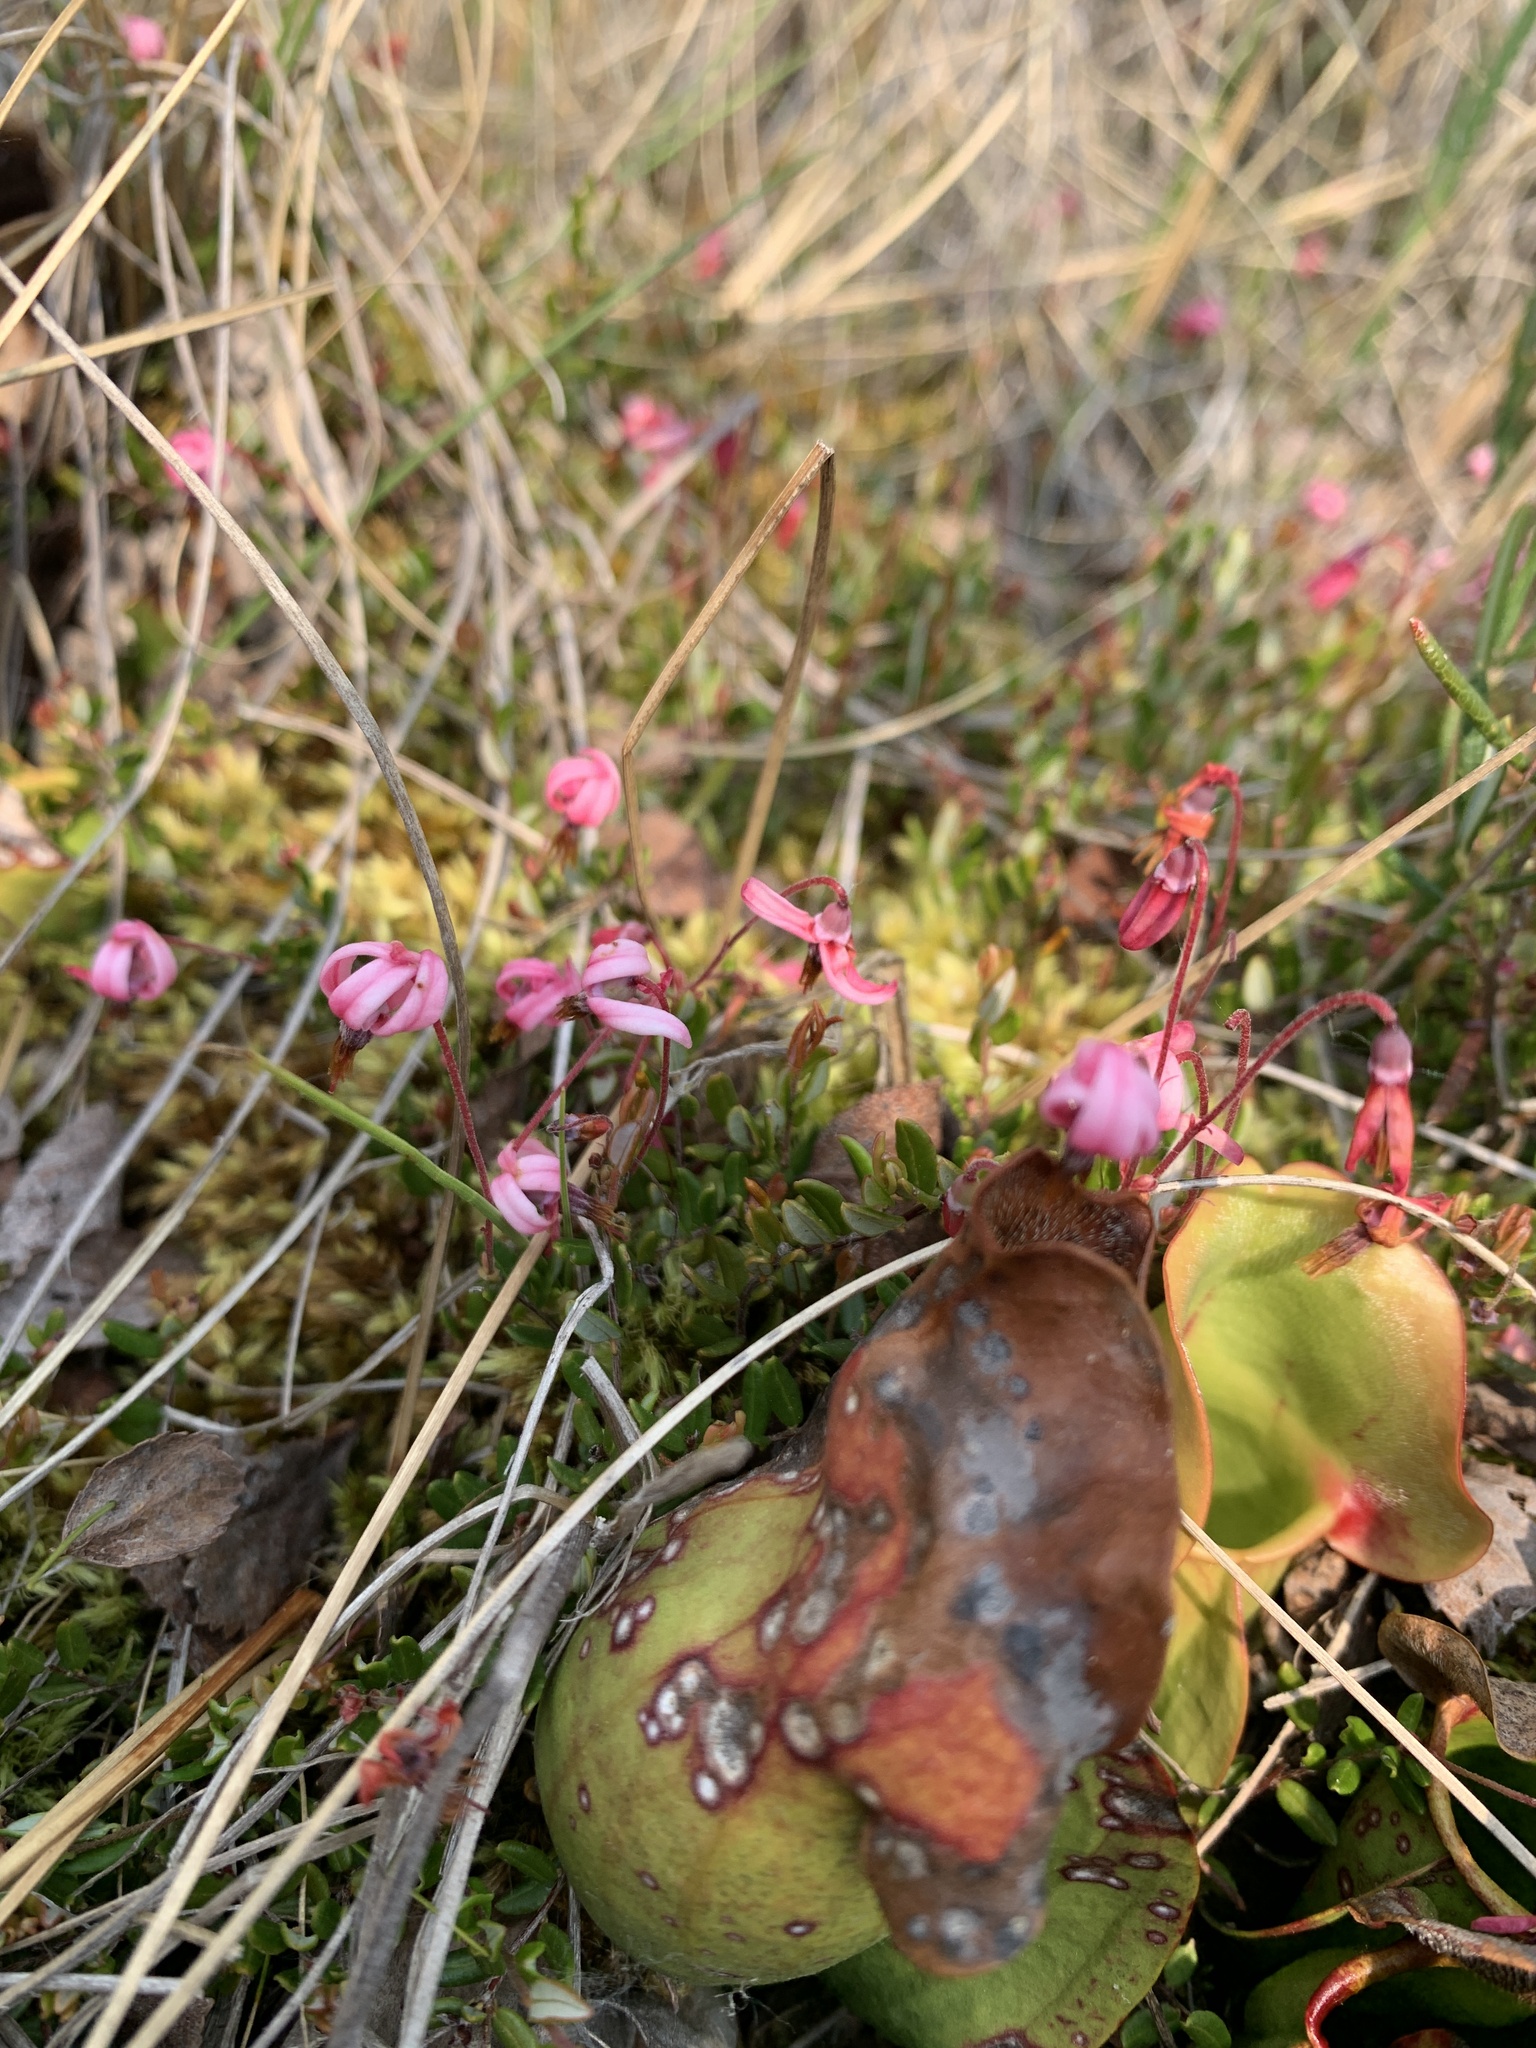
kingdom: Plantae
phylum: Tracheophyta
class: Magnoliopsida
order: Ericales
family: Ericaceae
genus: Vaccinium
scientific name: Vaccinium oxycoccos
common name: Cranberry
